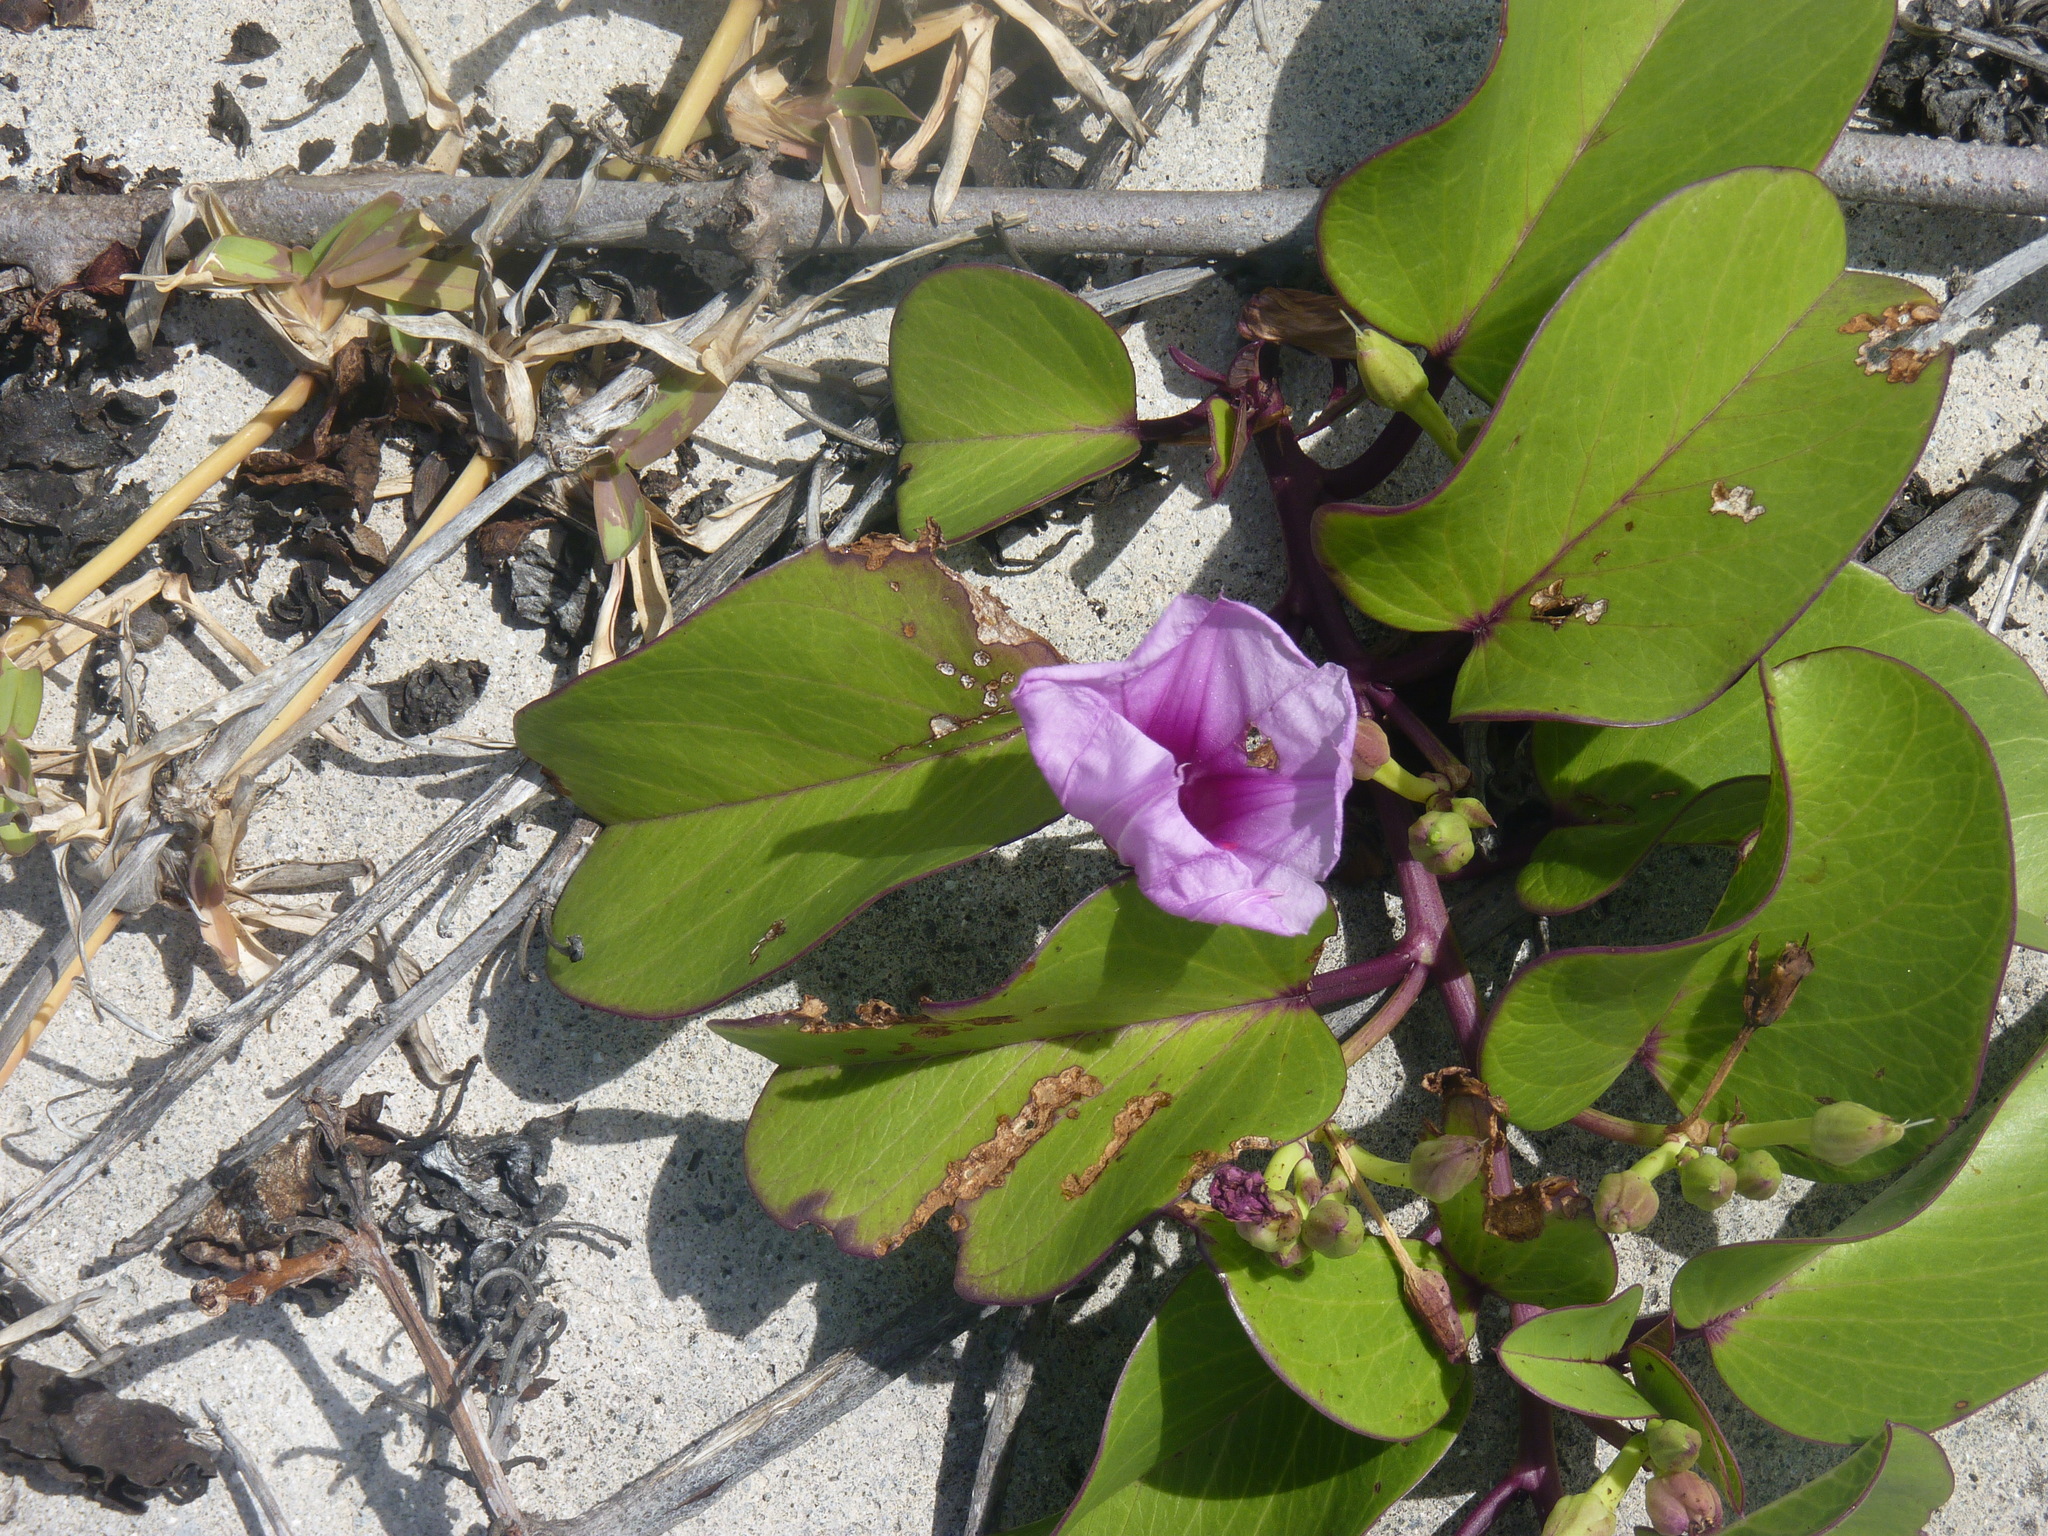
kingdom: Plantae
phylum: Tracheophyta
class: Magnoliopsida
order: Solanales
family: Convolvulaceae
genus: Ipomoea
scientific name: Ipomoea pes-caprae
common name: Beach morning glory
